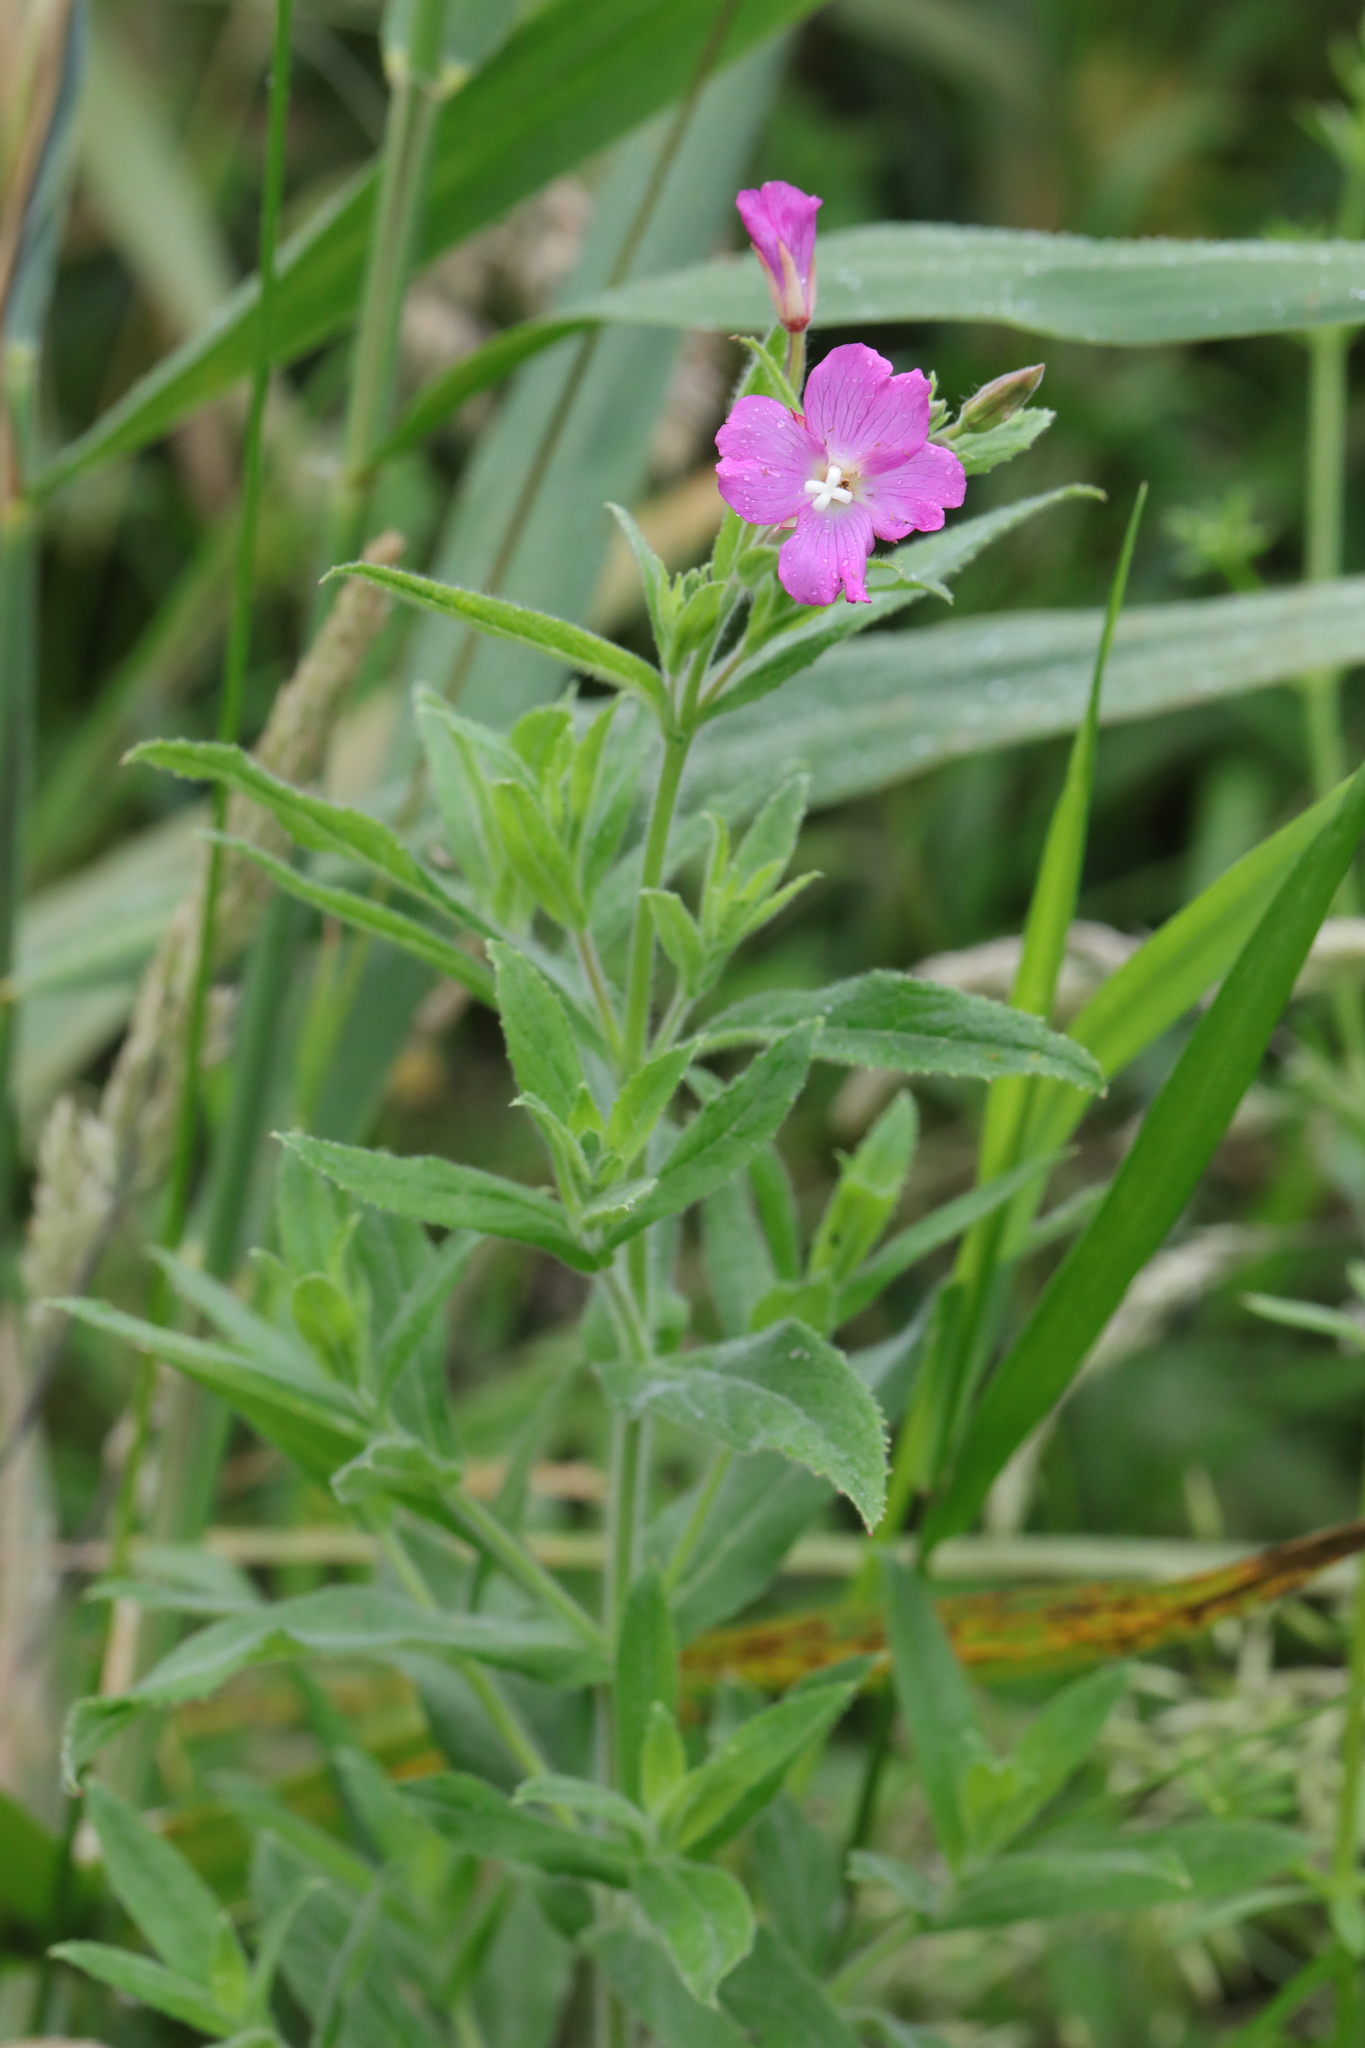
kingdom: Plantae
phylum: Tracheophyta
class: Magnoliopsida
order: Myrtales
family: Onagraceae
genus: Epilobium
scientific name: Epilobium hirsutum
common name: Great willowherb
